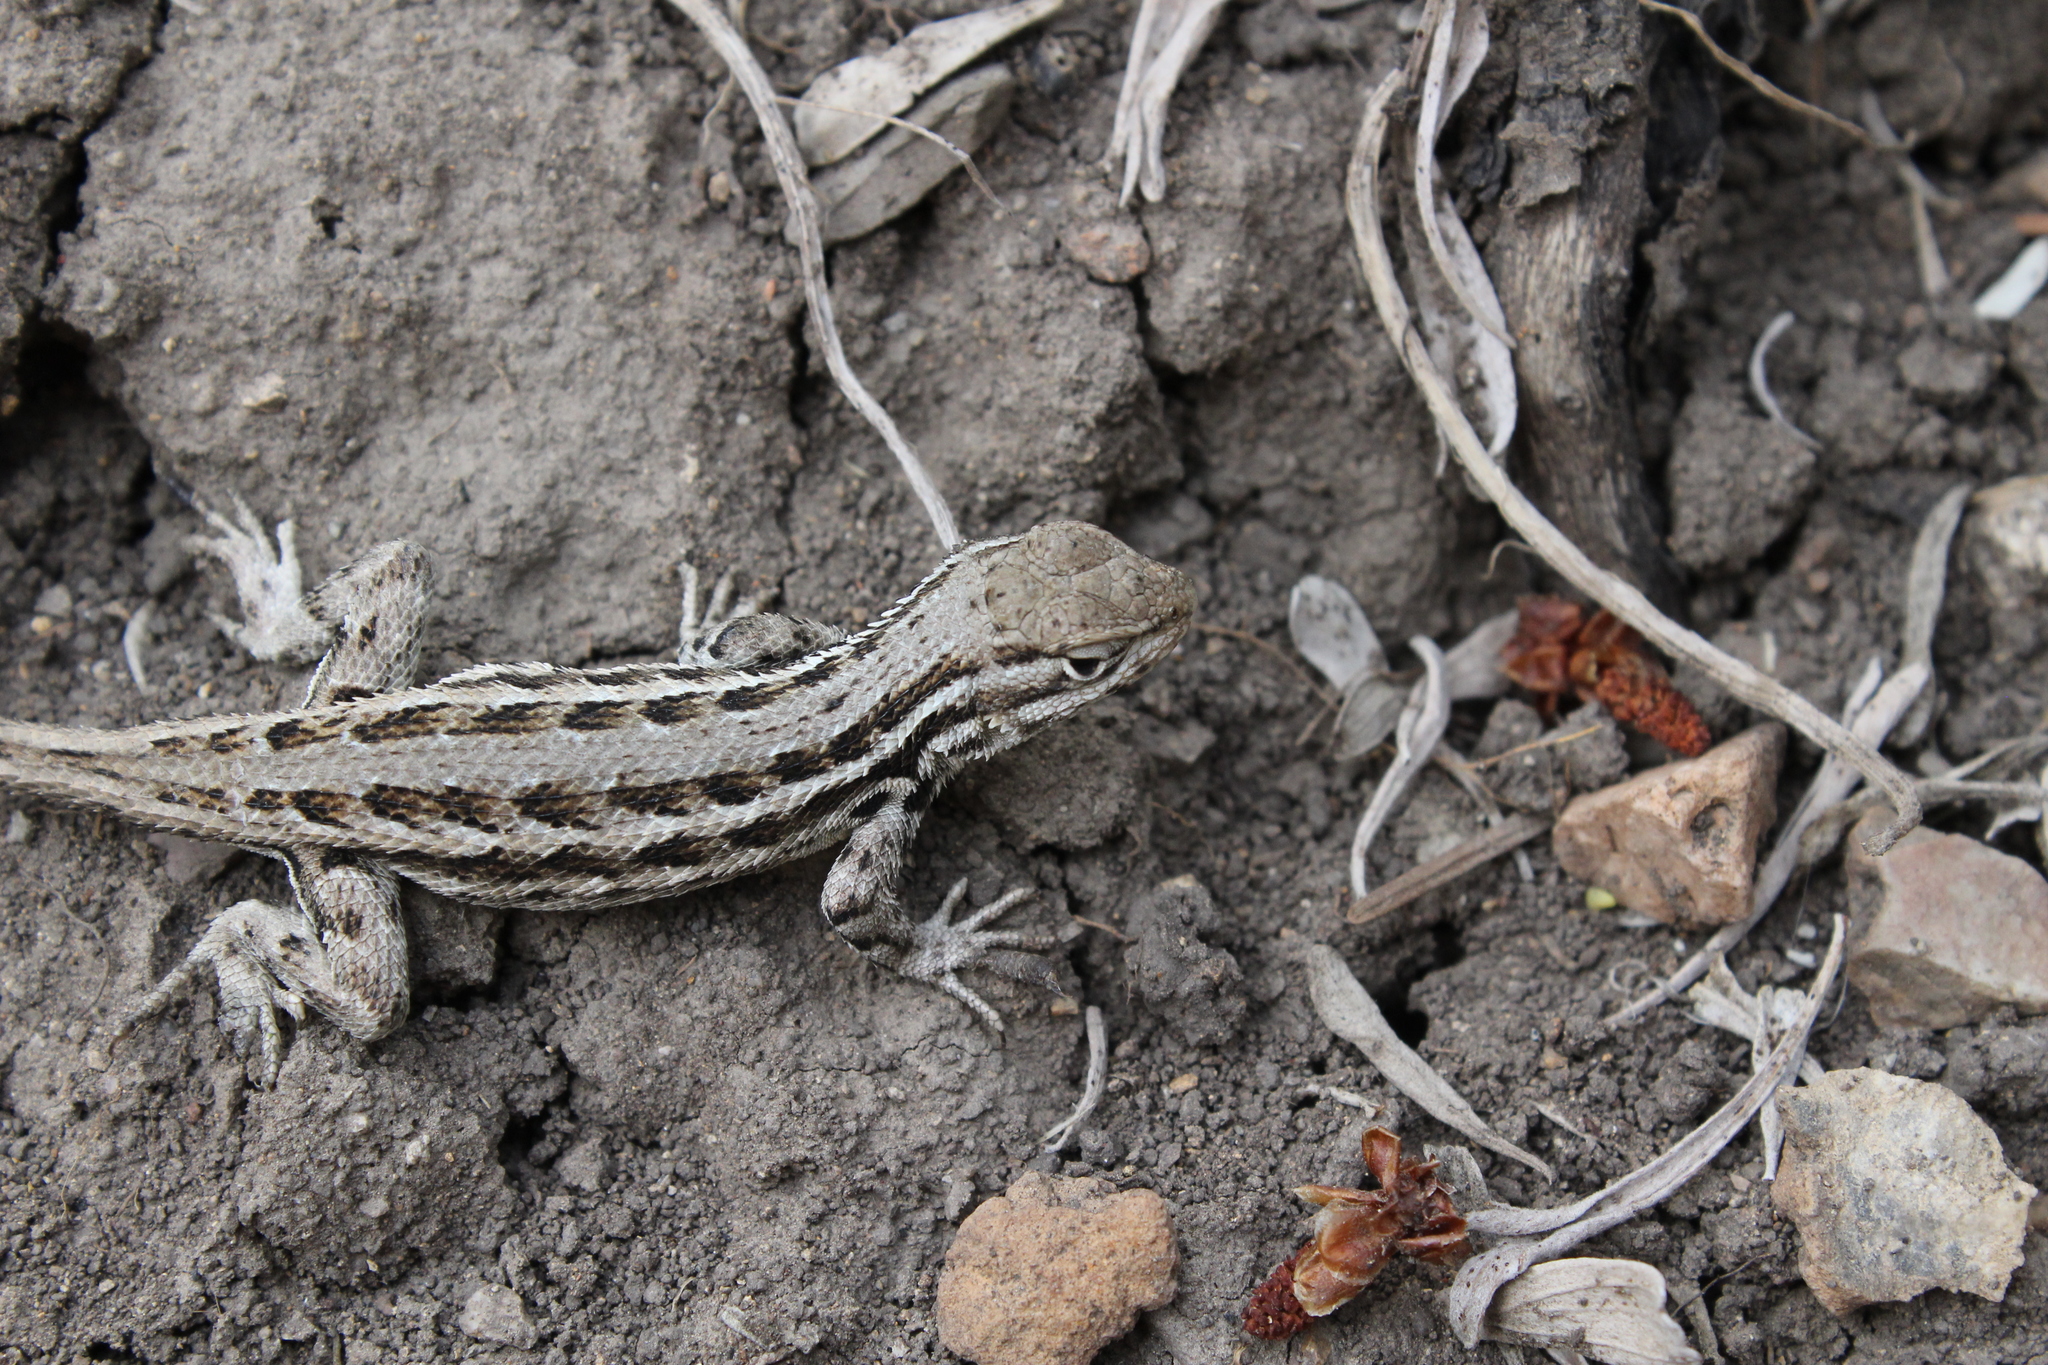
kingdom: Animalia
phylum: Chordata
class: Squamata
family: Phrynosomatidae
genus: Sceloporus
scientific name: Sceloporus graciosus
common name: Sagebrush lizard
